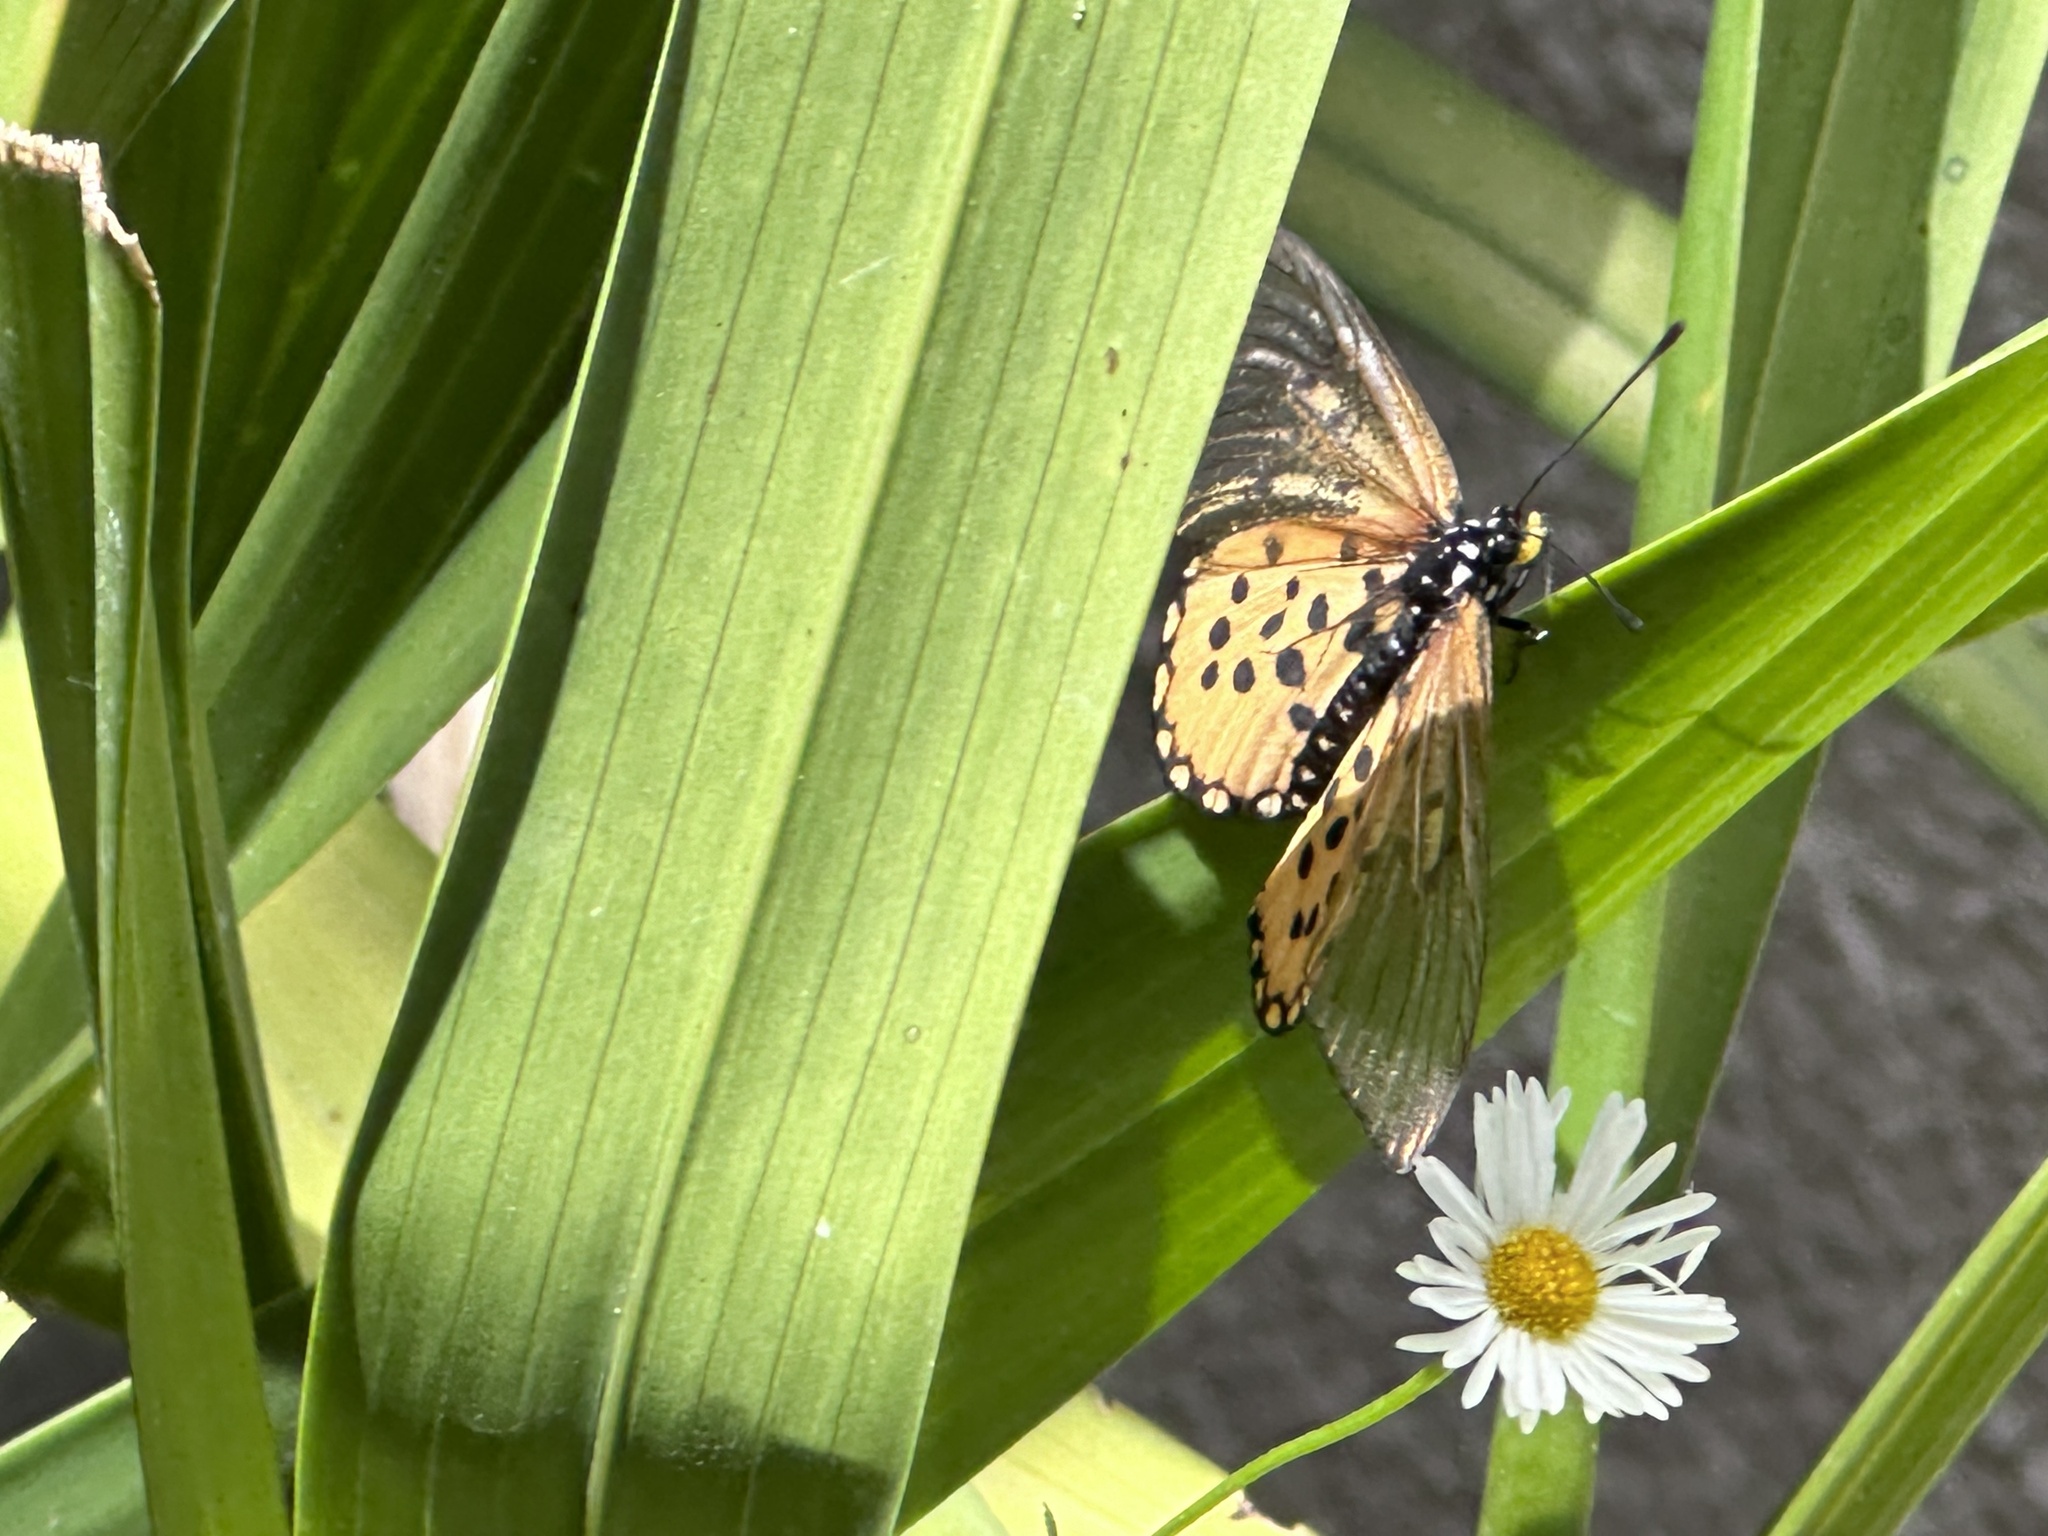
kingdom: Animalia
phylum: Arthropoda
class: Insecta
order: Lepidoptera
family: Nymphalidae
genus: Acraea
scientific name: Acraea horta
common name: Garden acraea
